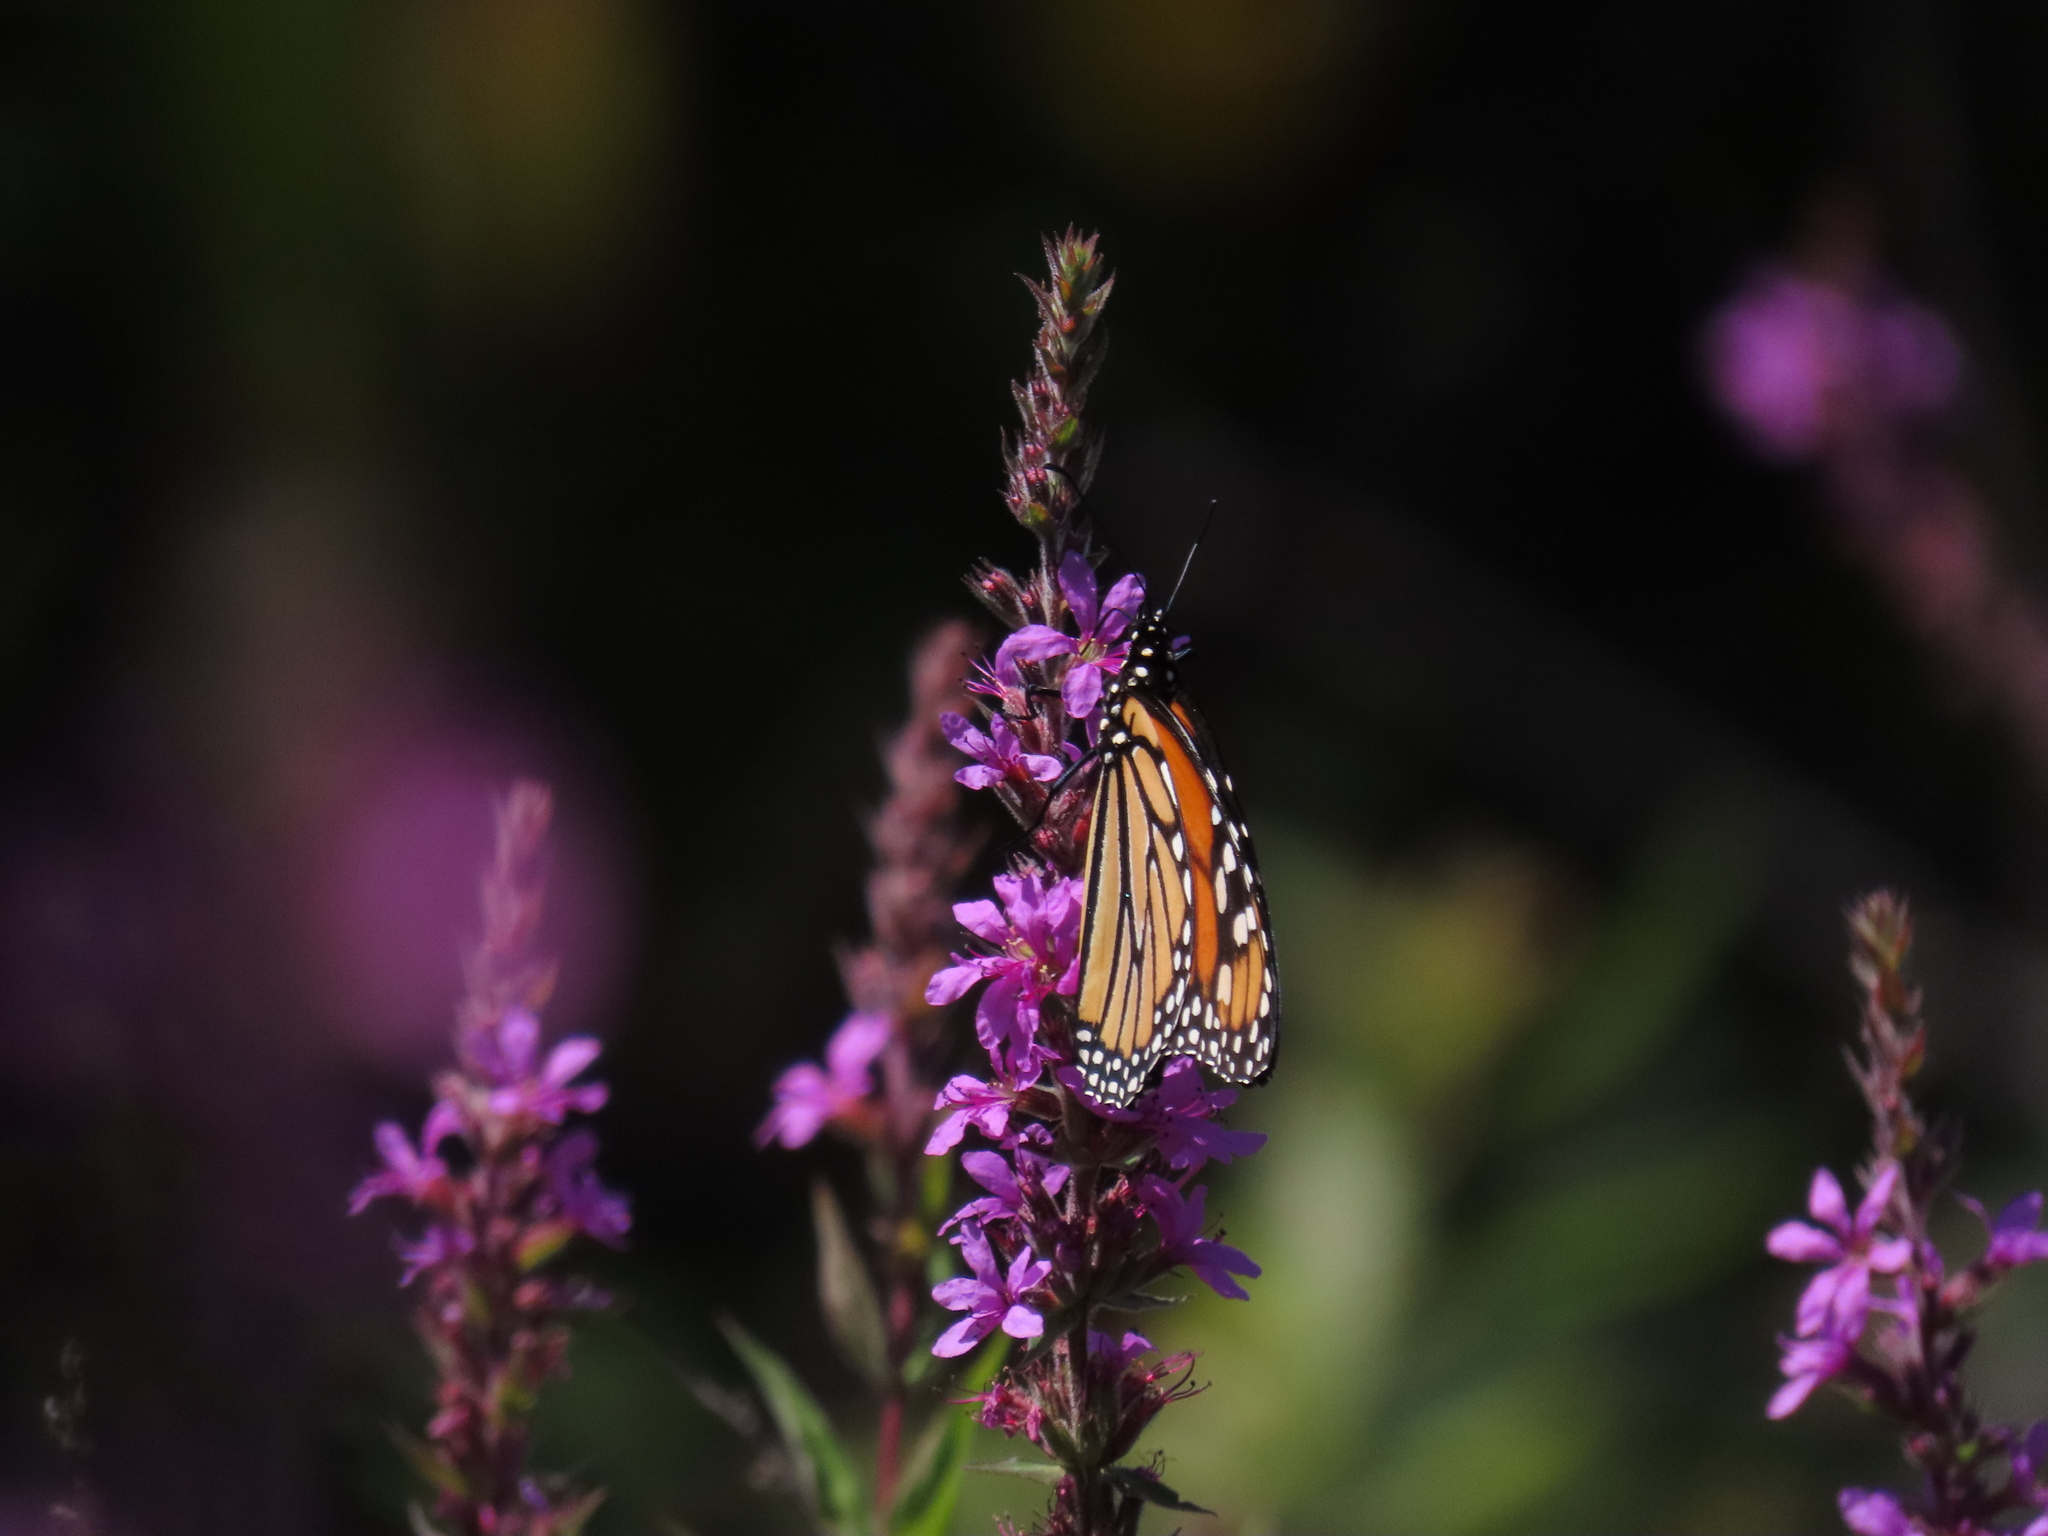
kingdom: Animalia
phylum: Arthropoda
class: Insecta
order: Lepidoptera
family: Nymphalidae
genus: Danaus
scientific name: Danaus plexippus
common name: Monarch
